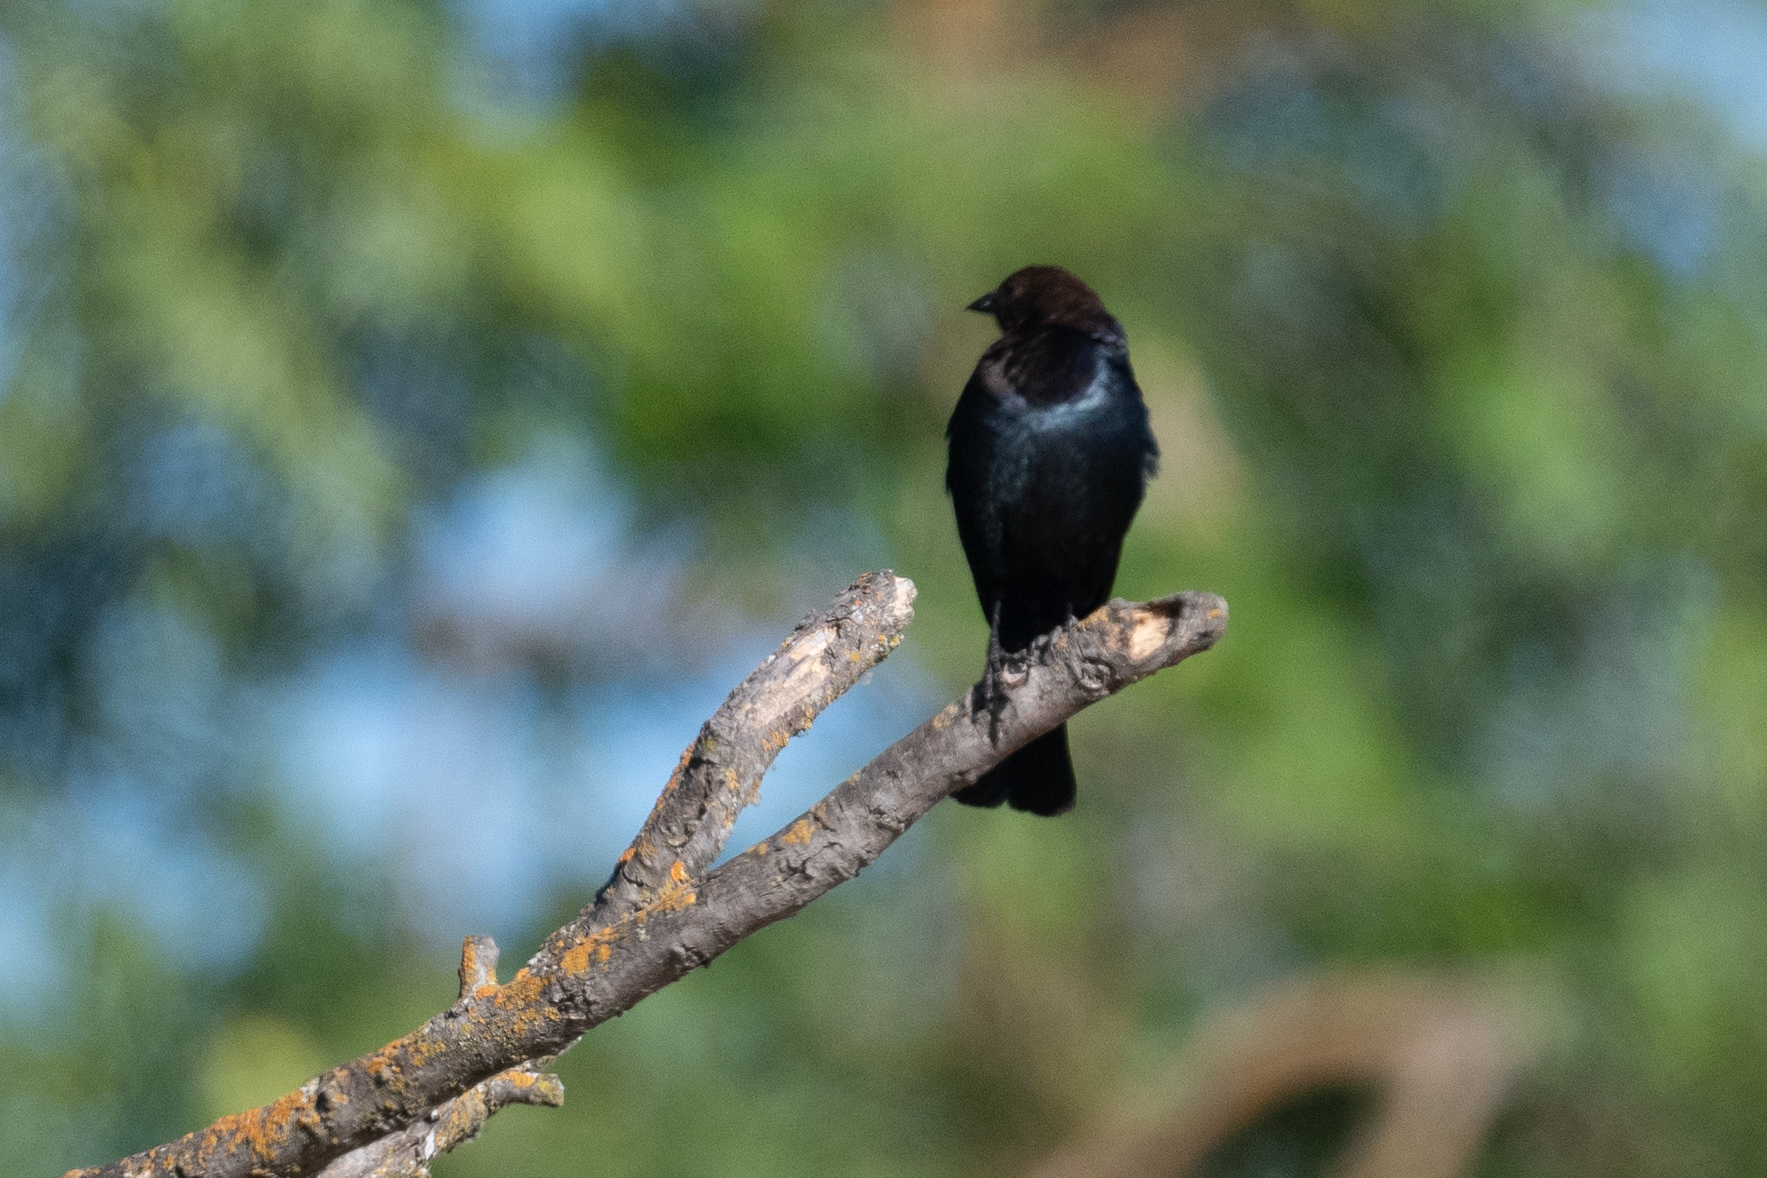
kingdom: Animalia
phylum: Chordata
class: Aves
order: Passeriformes
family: Icteridae
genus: Molothrus
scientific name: Molothrus ater
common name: Brown-headed cowbird
